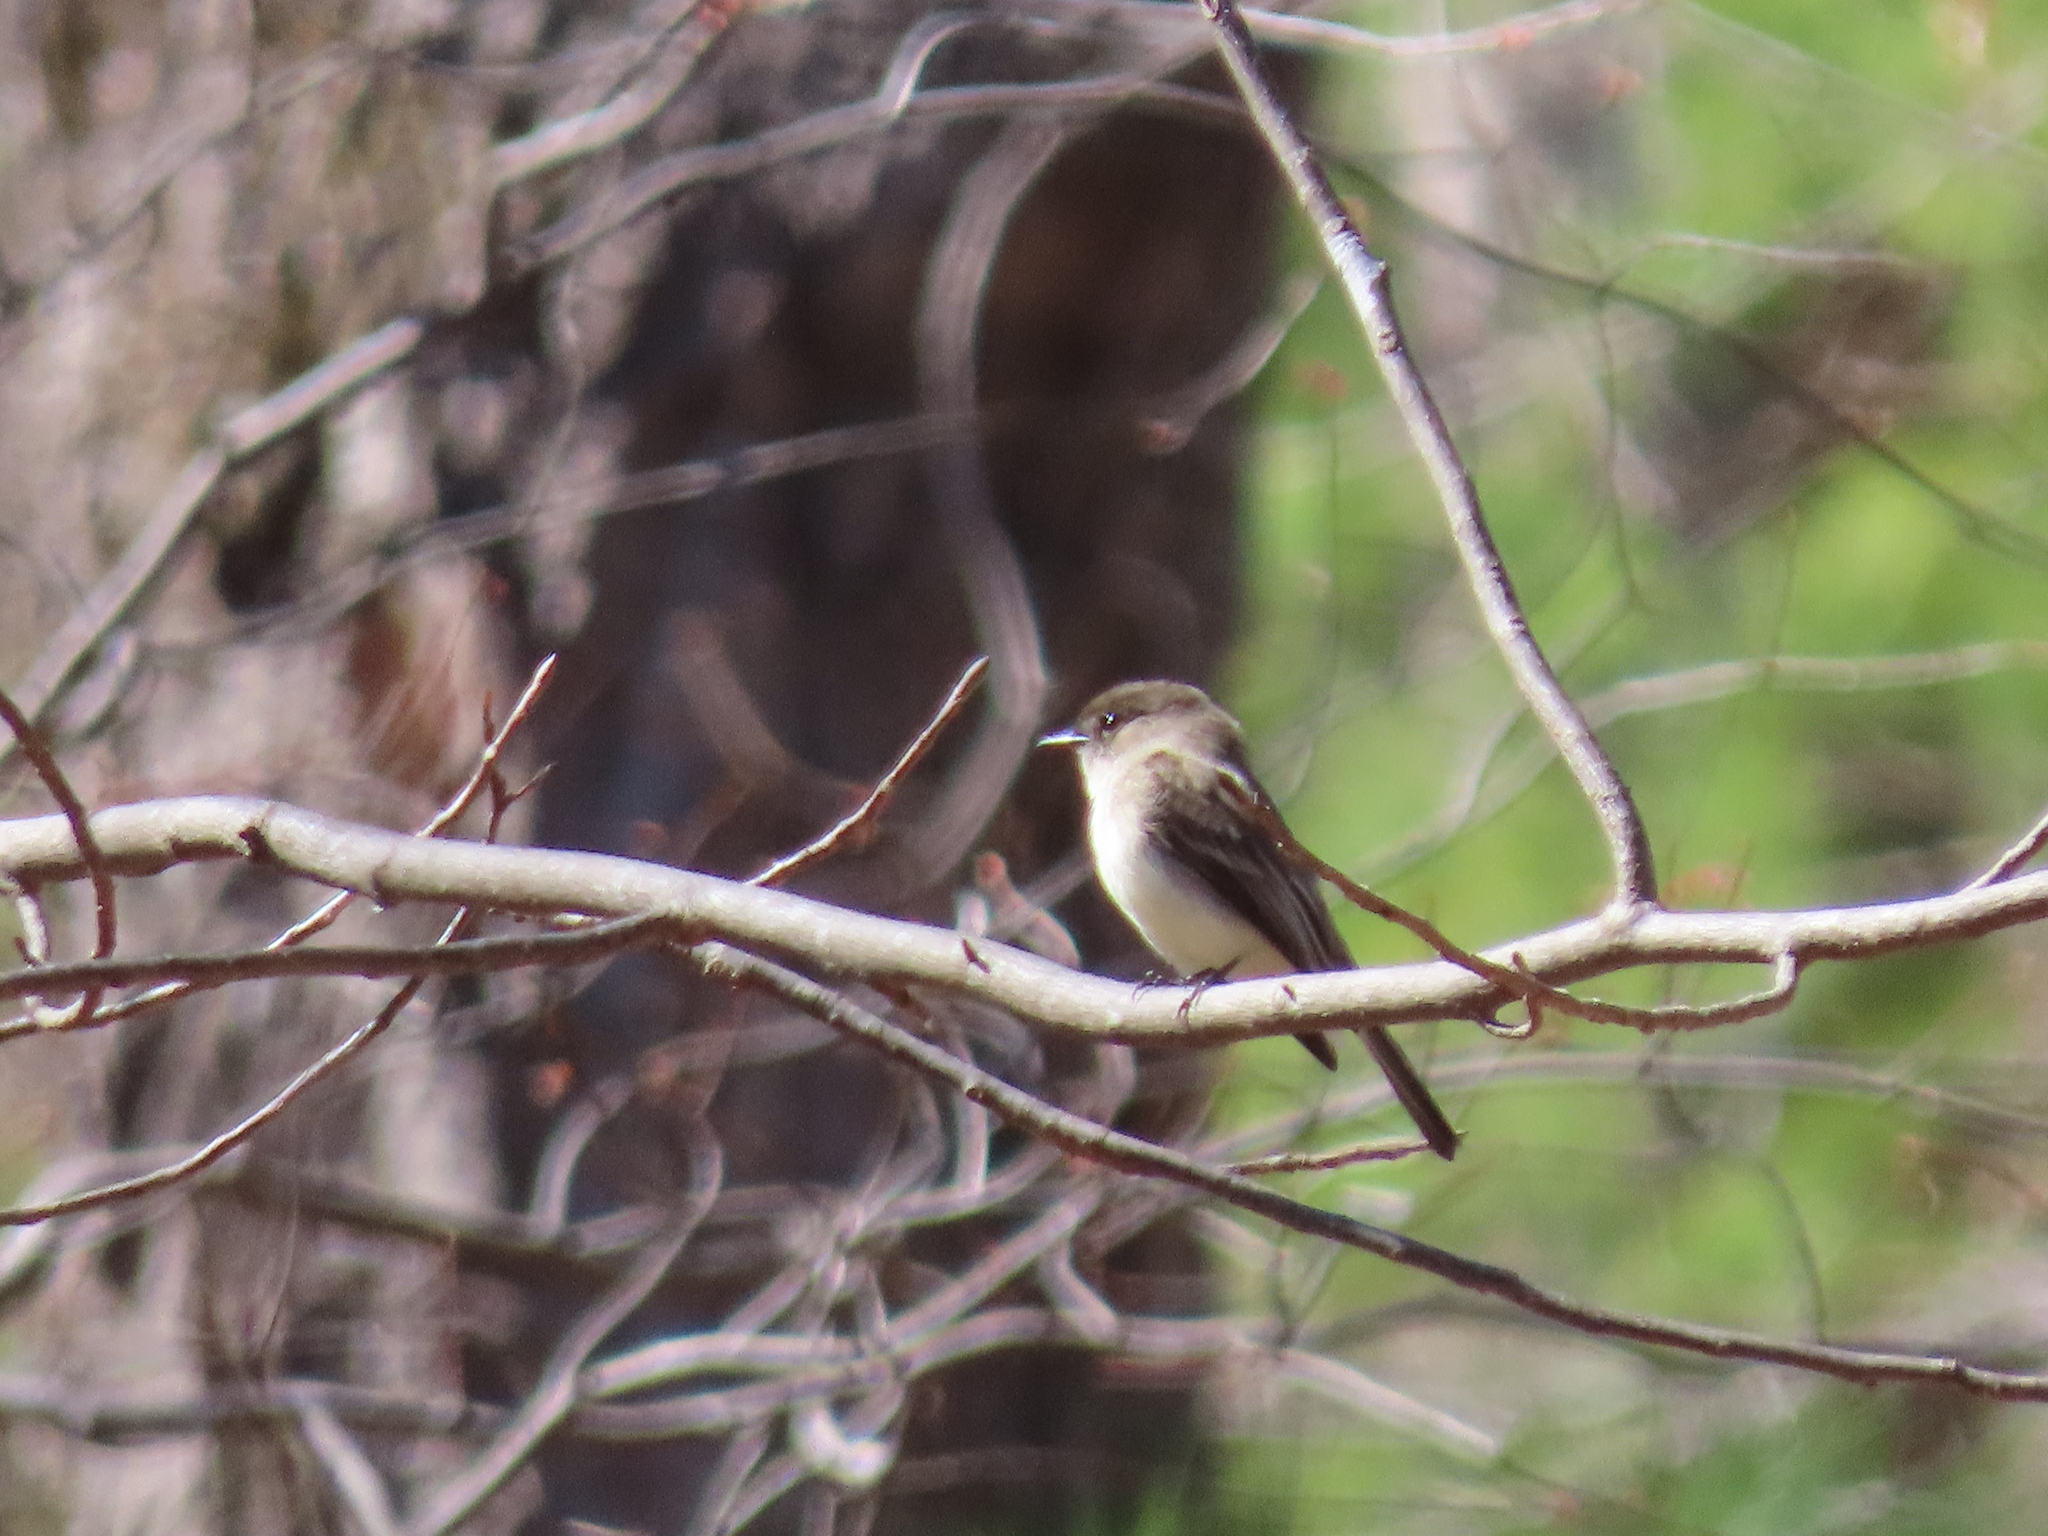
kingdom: Animalia
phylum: Chordata
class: Aves
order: Passeriformes
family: Tyrannidae
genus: Sayornis
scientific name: Sayornis phoebe
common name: Eastern phoebe
